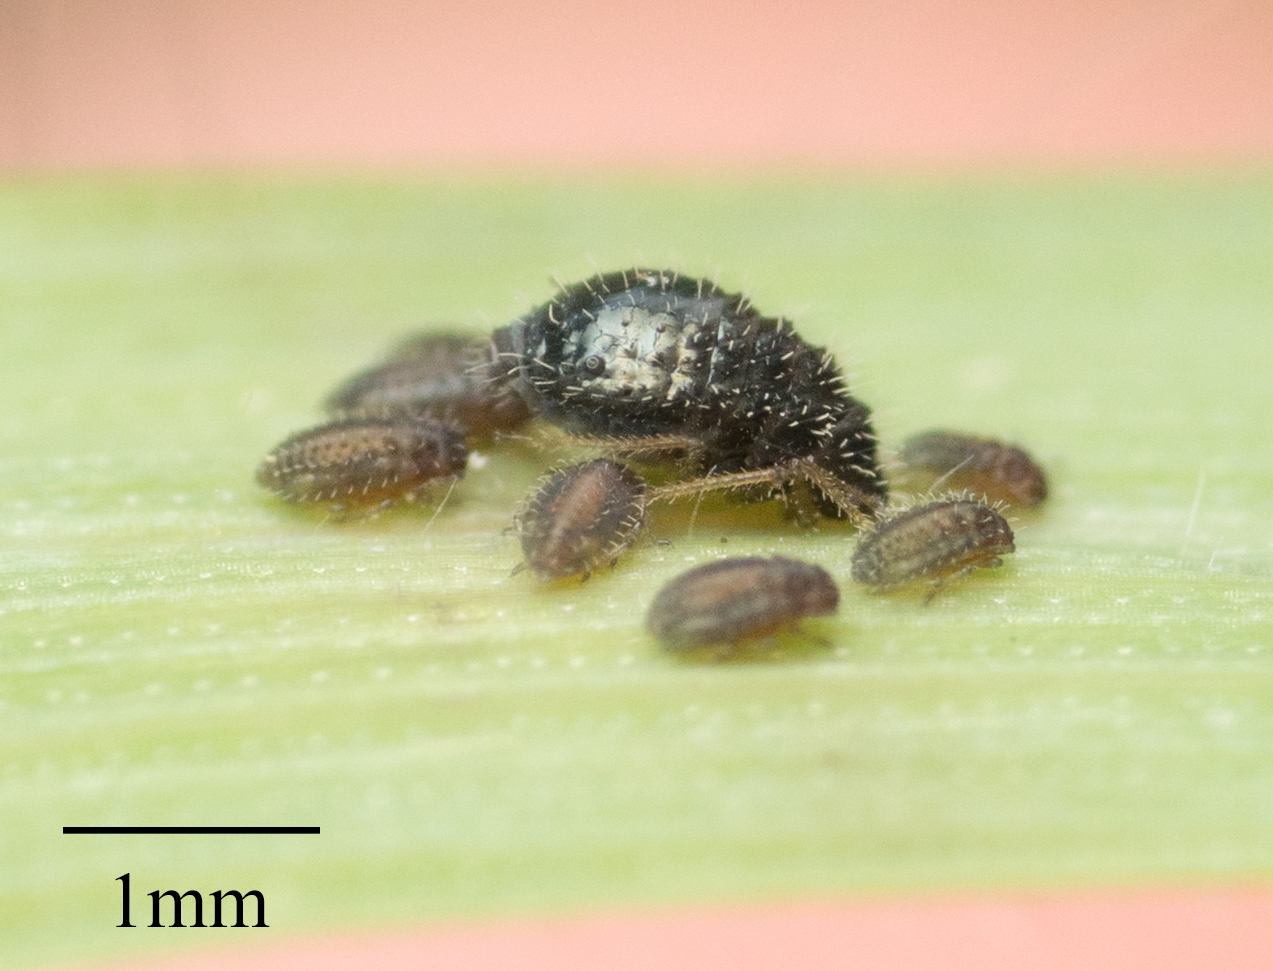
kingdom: Animalia
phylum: Arthropoda
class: Insecta
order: Hemiptera
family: Aphididae
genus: Sipha
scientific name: Sipha maydis
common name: Aphid
